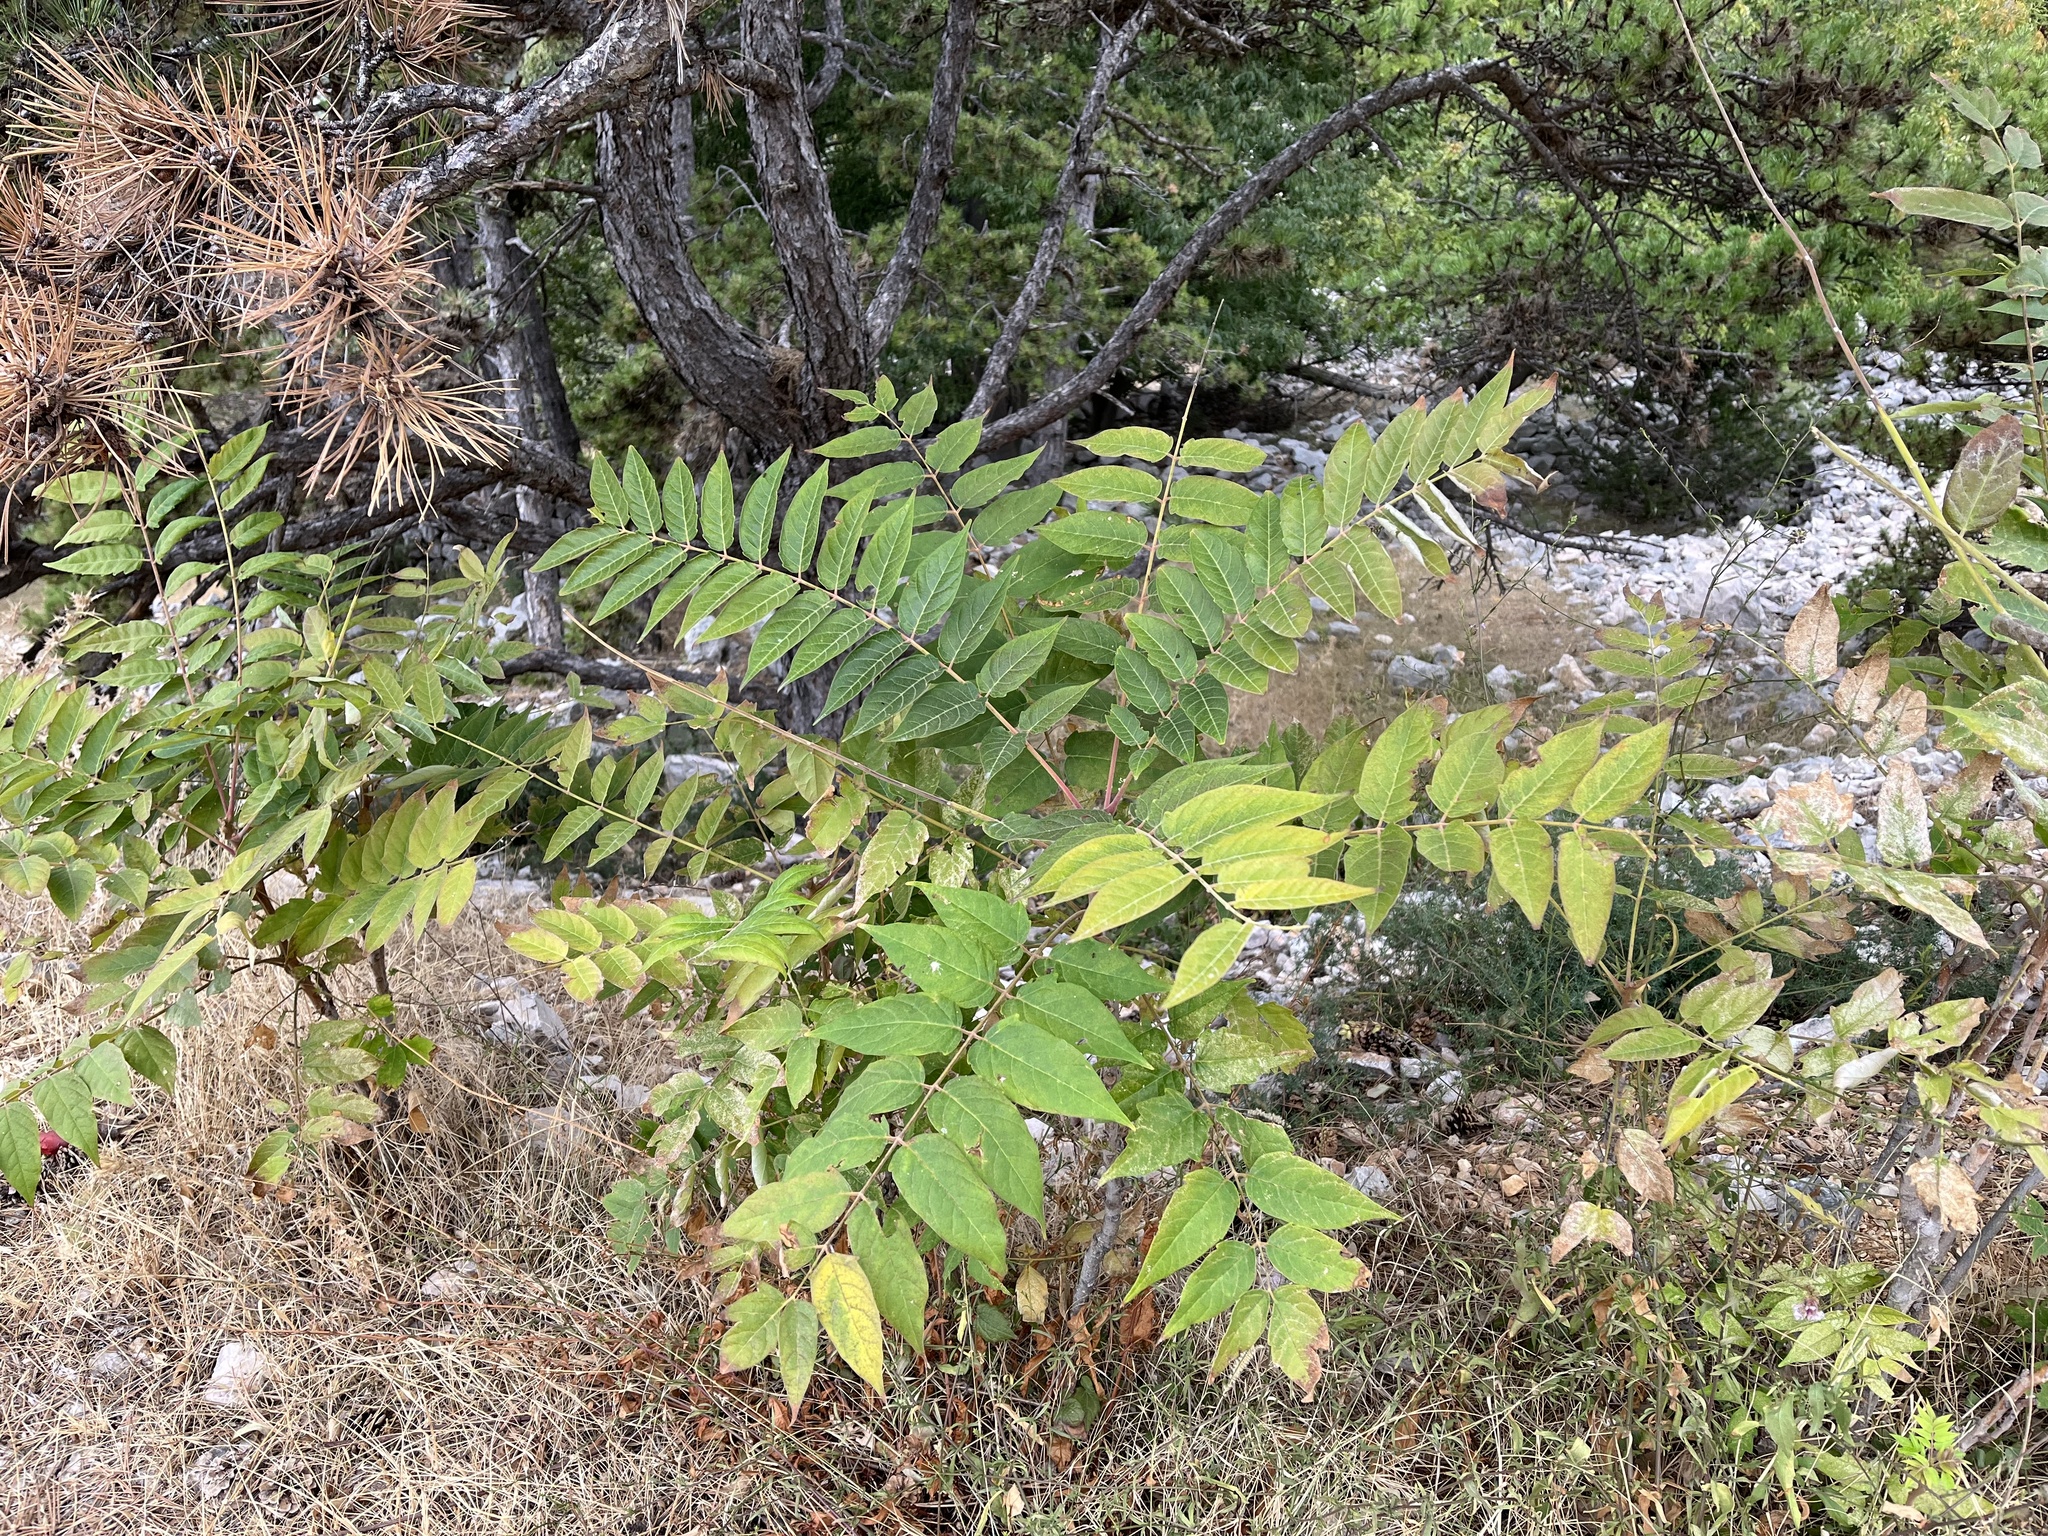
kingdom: Plantae
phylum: Tracheophyta
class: Magnoliopsida
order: Sapindales
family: Simaroubaceae
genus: Ailanthus
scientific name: Ailanthus altissima
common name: Tree-of-heaven
